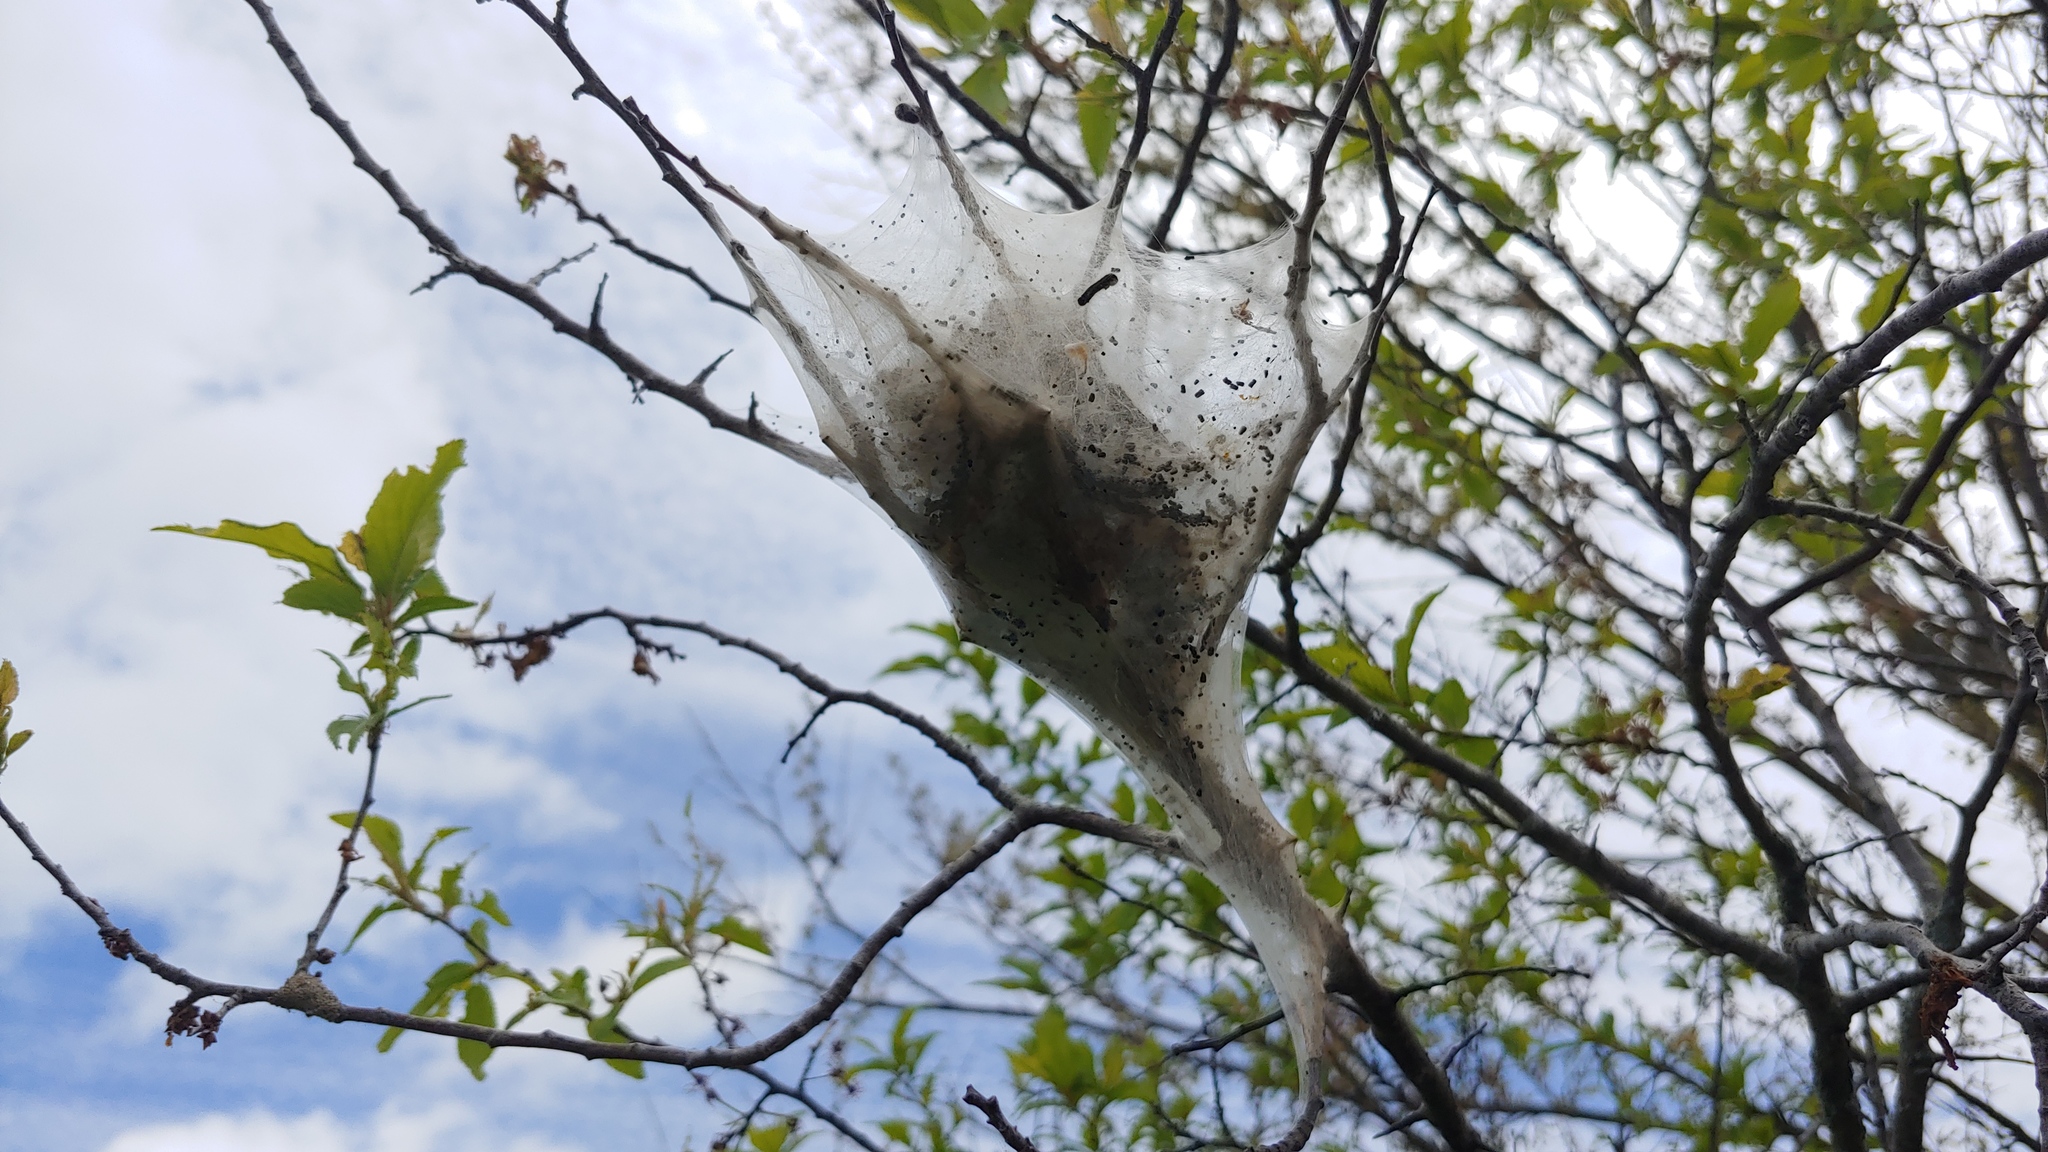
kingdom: Animalia
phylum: Arthropoda
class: Insecta
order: Lepidoptera
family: Lasiocampidae
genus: Malacosoma
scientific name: Malacosoma americana
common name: Eastern tent caterpillar moth
